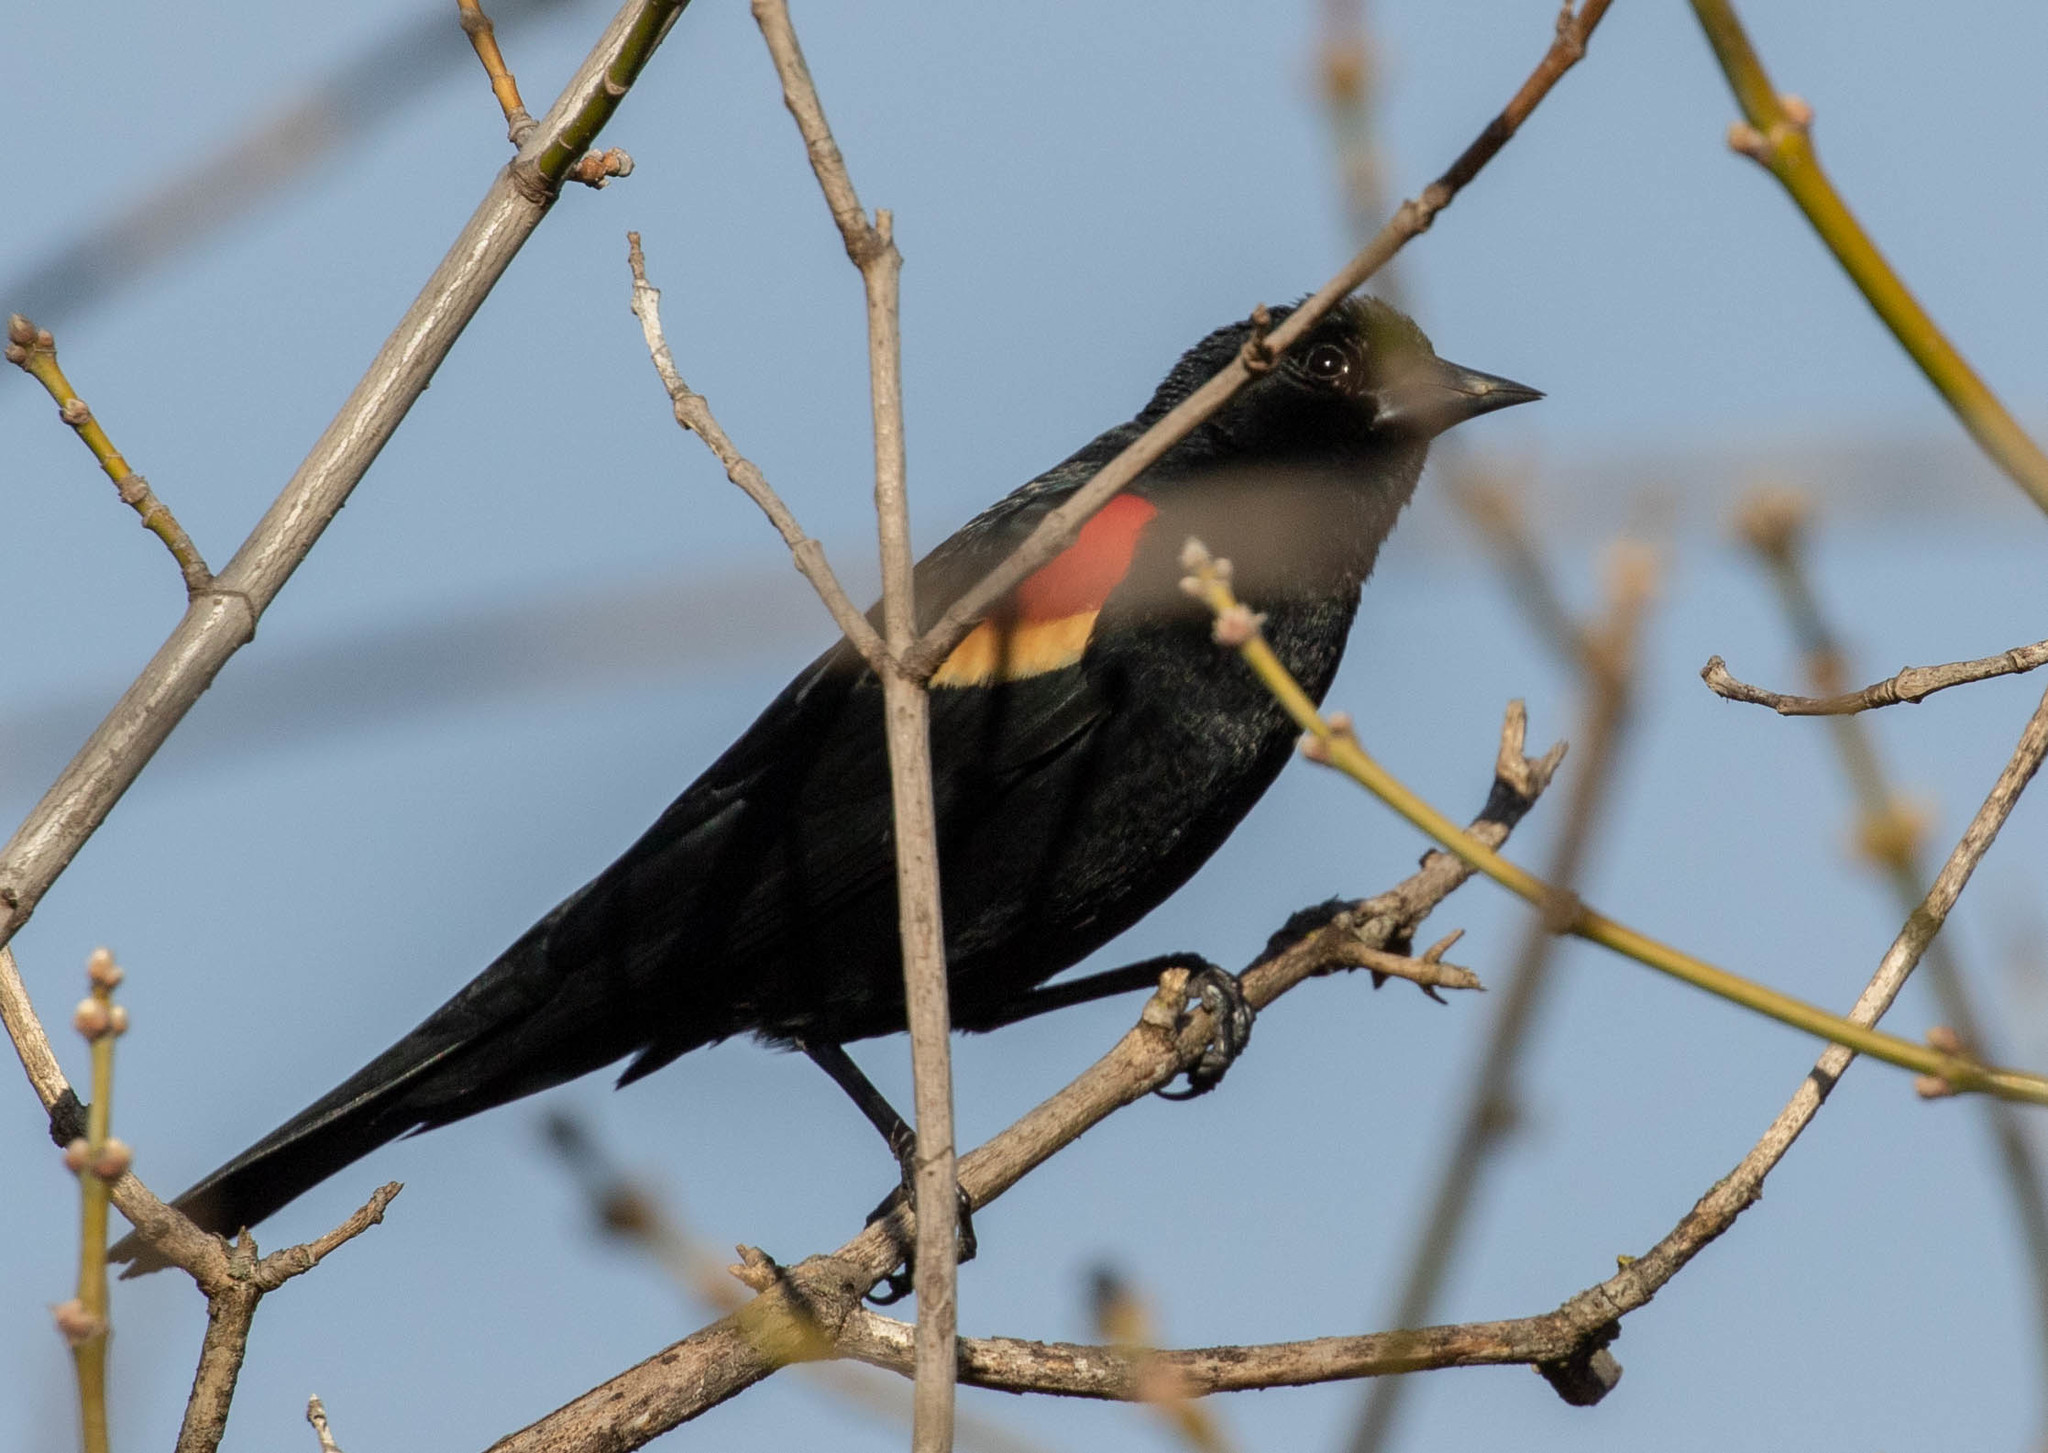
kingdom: Animalia
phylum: Chordata
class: Aves
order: Passeriformes
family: Icteridae
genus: Agelaius
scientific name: Agelaius phoeniceus
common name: Red-winged blackbird
